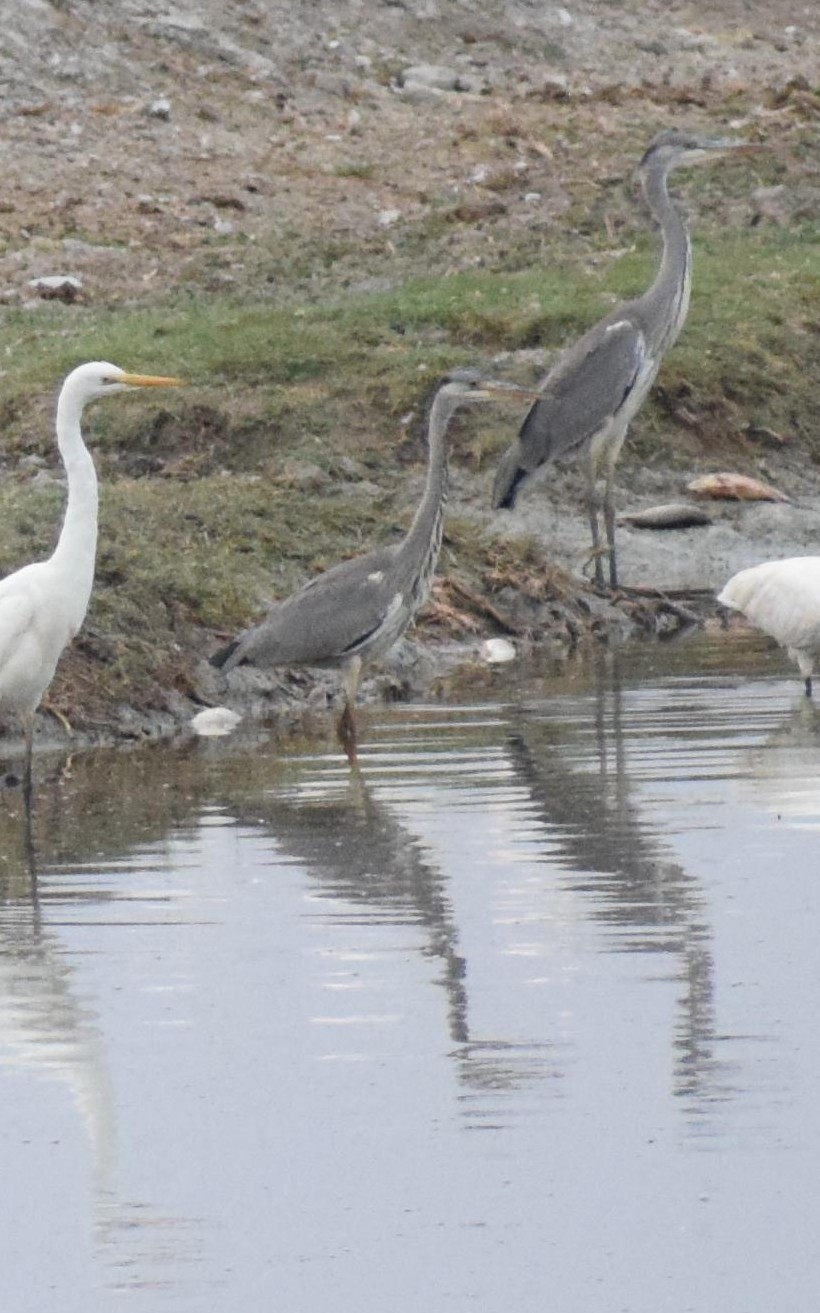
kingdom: Animalia
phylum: Chordata
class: Aves
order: Pelecaniformes
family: Ardeidae
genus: Ardea
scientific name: Ardea cinerea
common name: Grey heron
